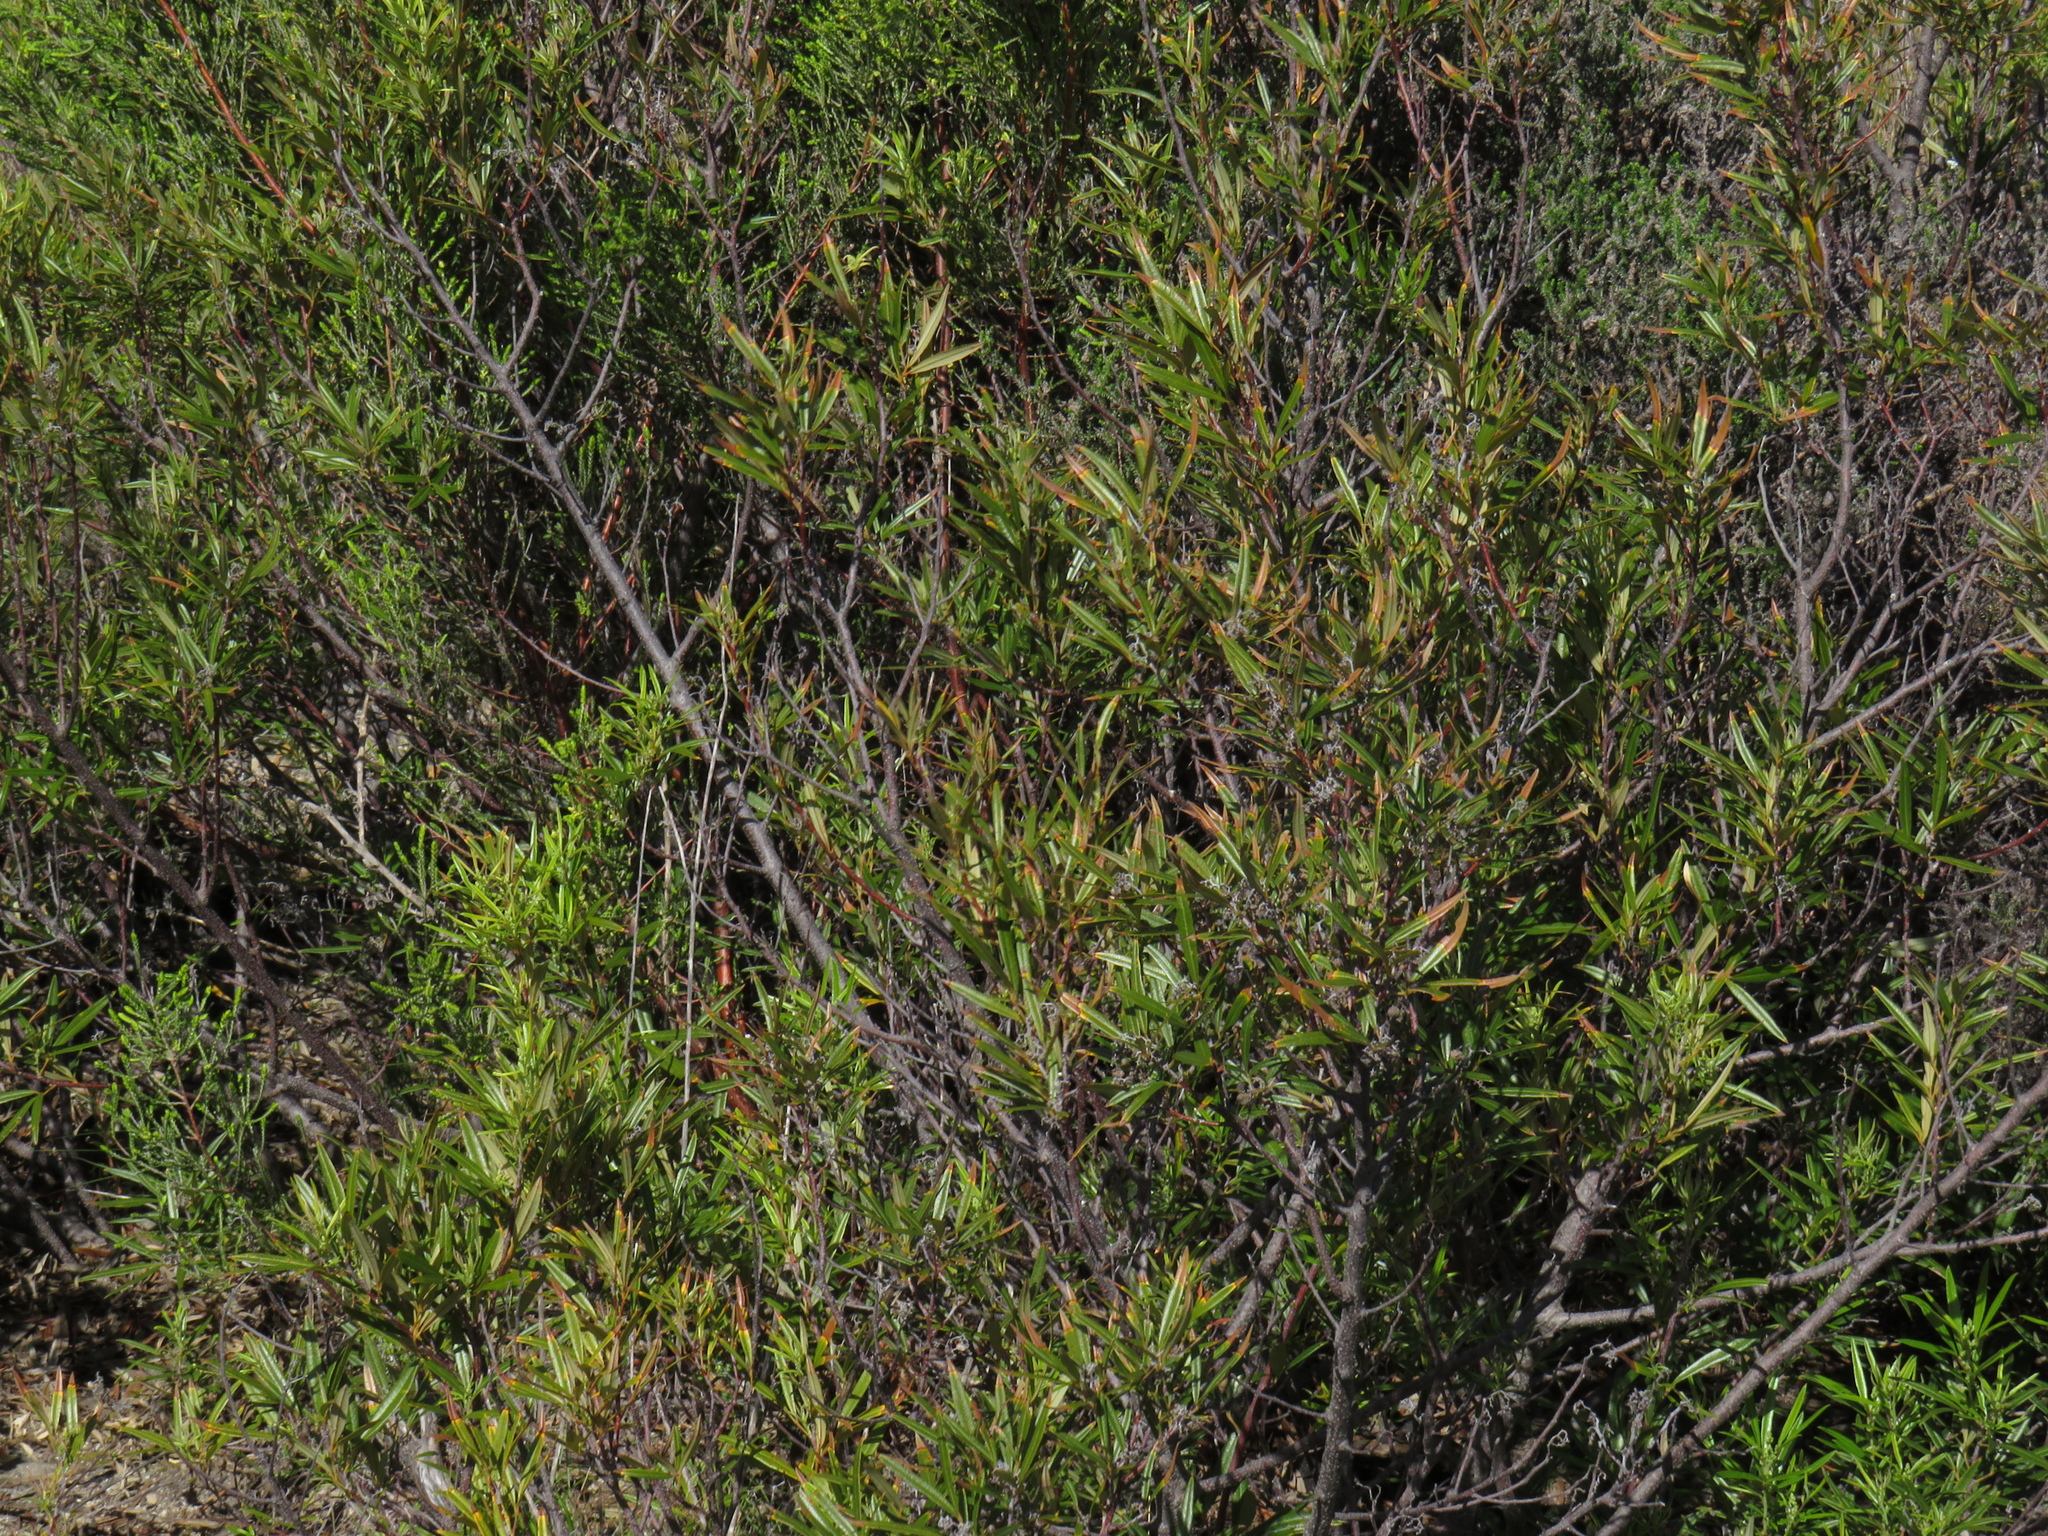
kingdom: Plantae
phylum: Tracheophyta
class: Magnoliopsida
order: Sapindales
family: Anacardiaceae
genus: Searsia
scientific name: Searsia angustifolia
